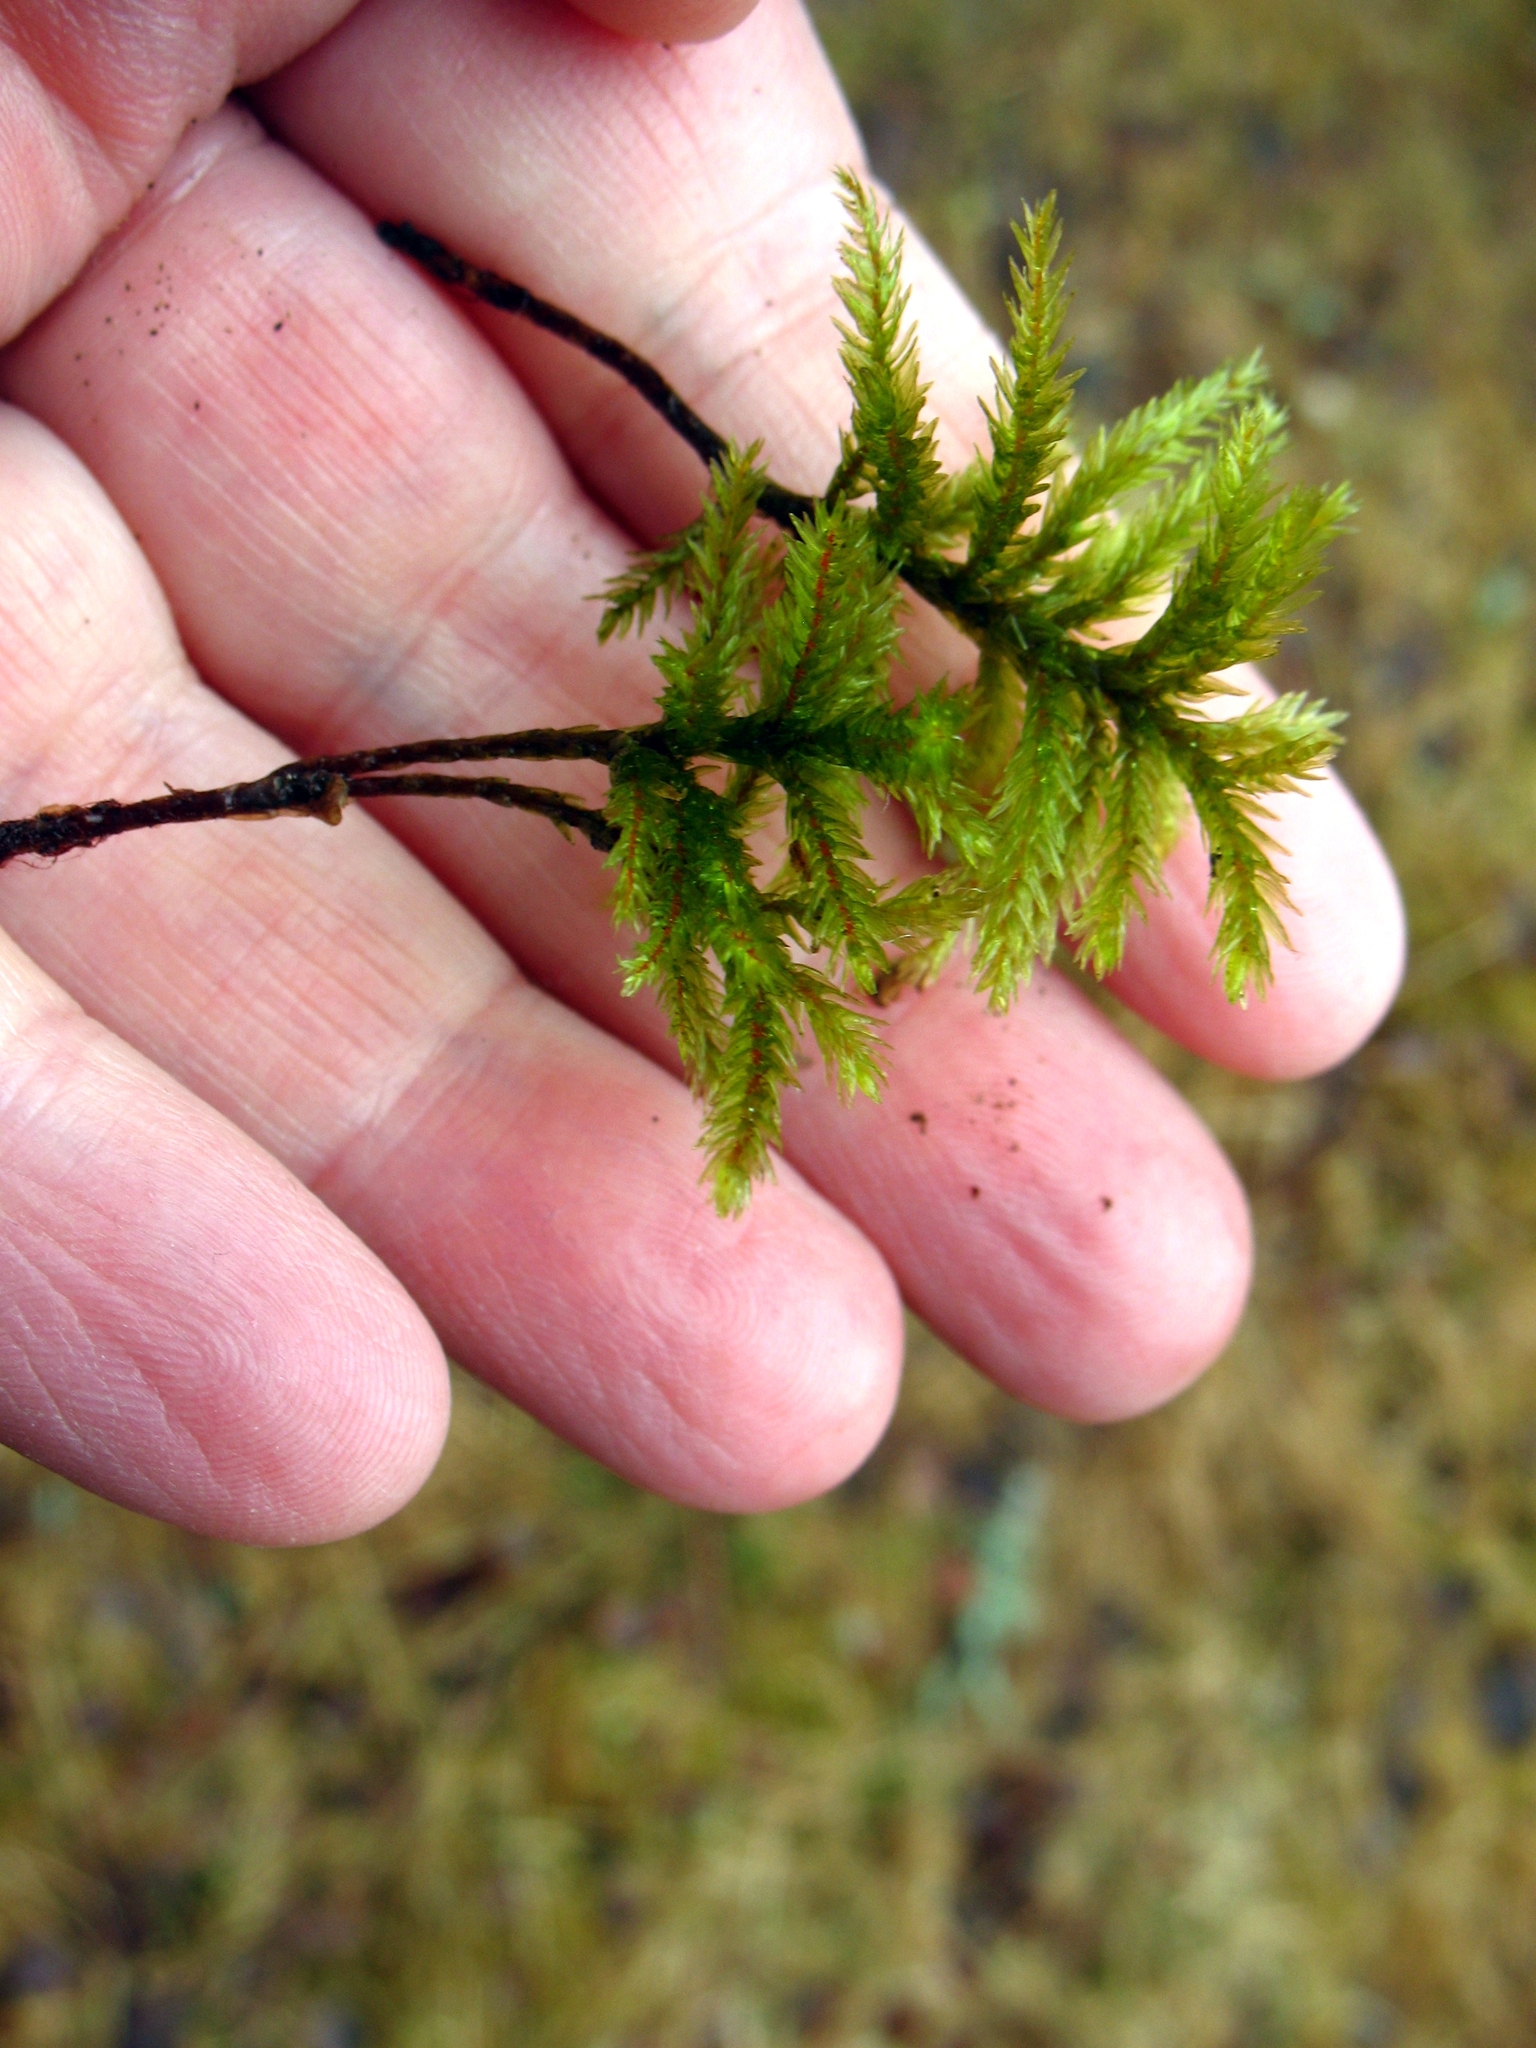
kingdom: Plantae
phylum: Bryophyta
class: Bryopsida
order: Hypnales
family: Climaciaceae
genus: Climacium
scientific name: Climacium dendroides
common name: Northern tree moss
